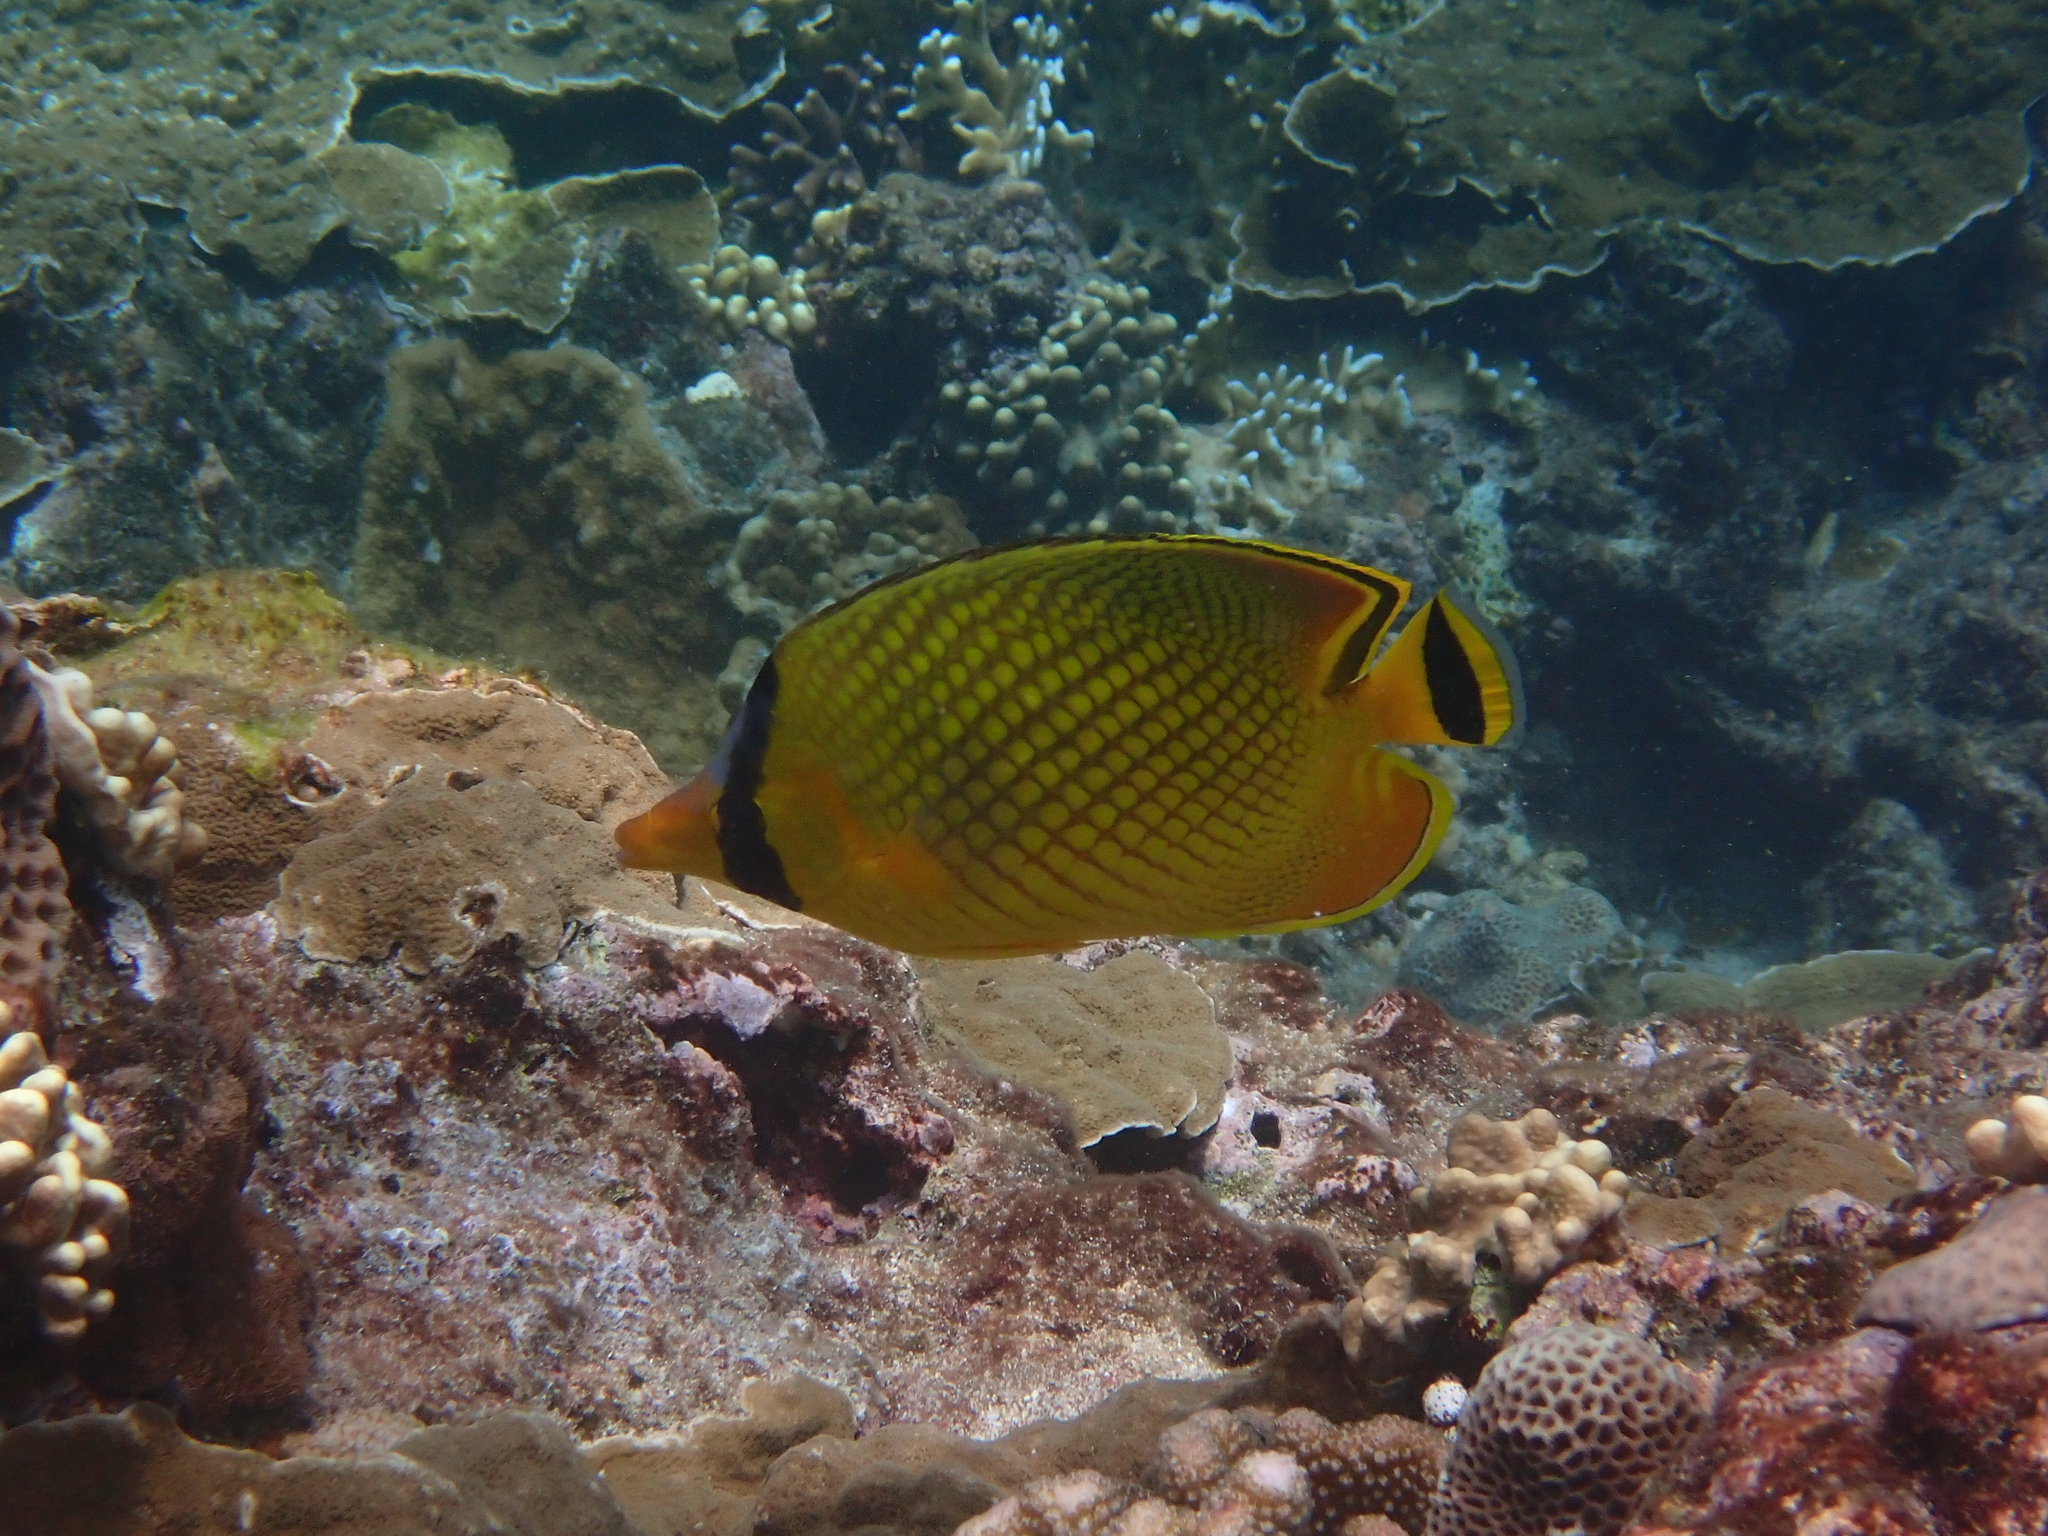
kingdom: Animalia
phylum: Chordata
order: Perciformes
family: Chaetodontidae
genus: Chaetodon
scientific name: Chaetodon rafflesii
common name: Latticed butterflyfish
